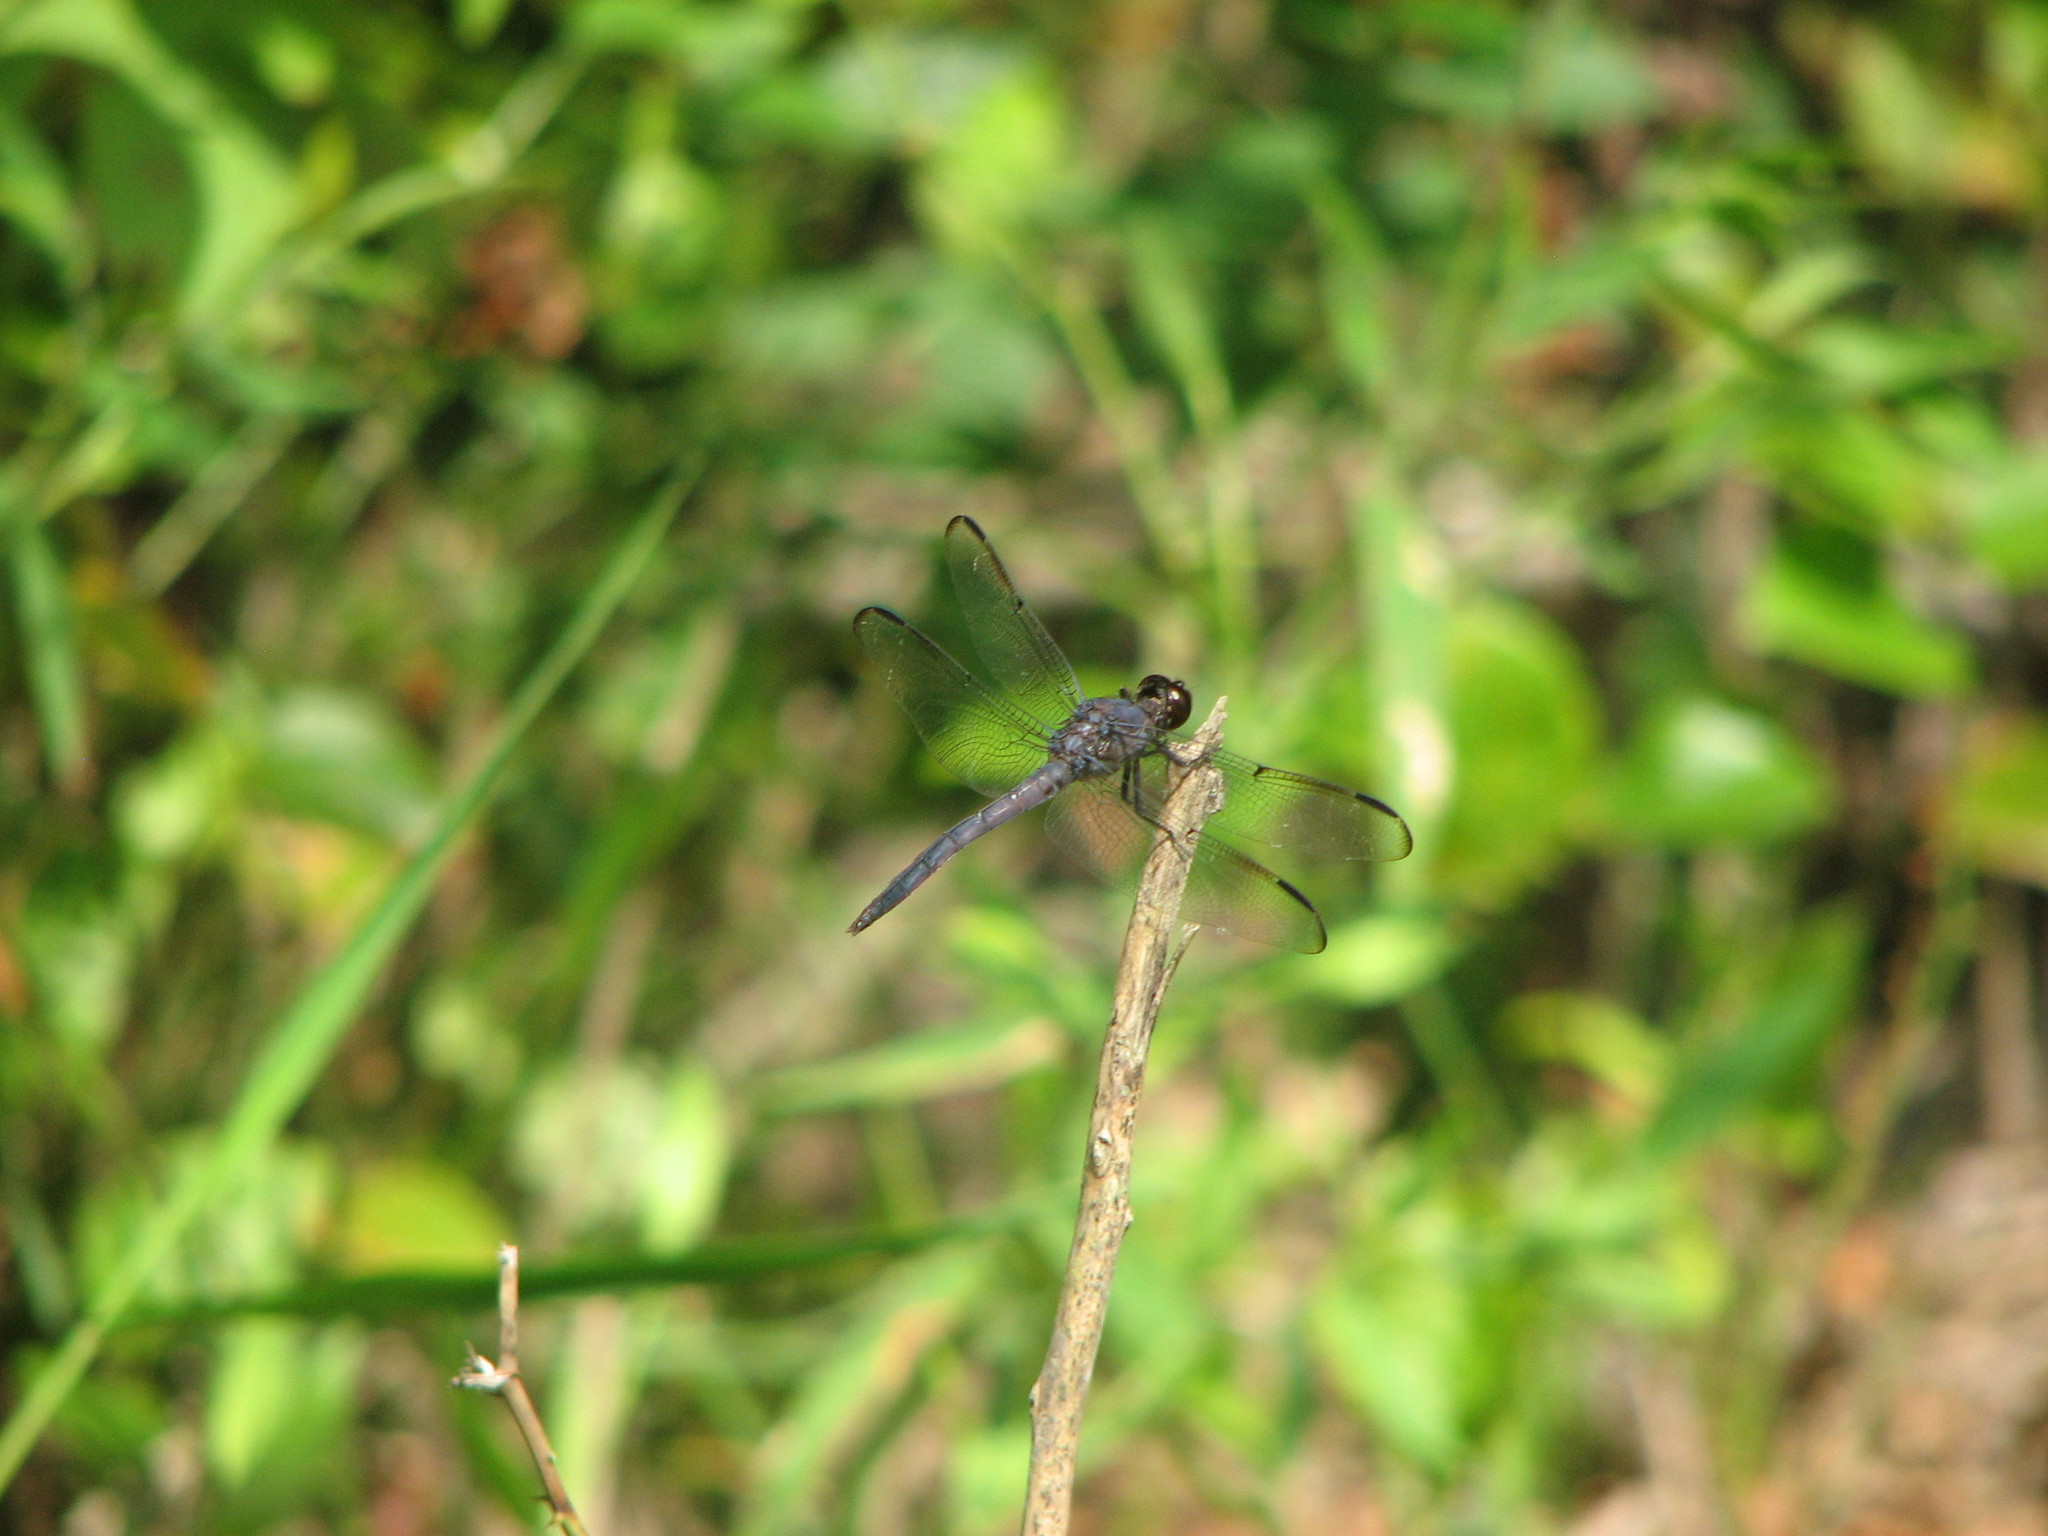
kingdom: Animalia
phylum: Arthropoda
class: Insecta
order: Odonata
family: Libellulidae
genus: Libellula
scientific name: Libellula incesta
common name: Slaty skimmer
